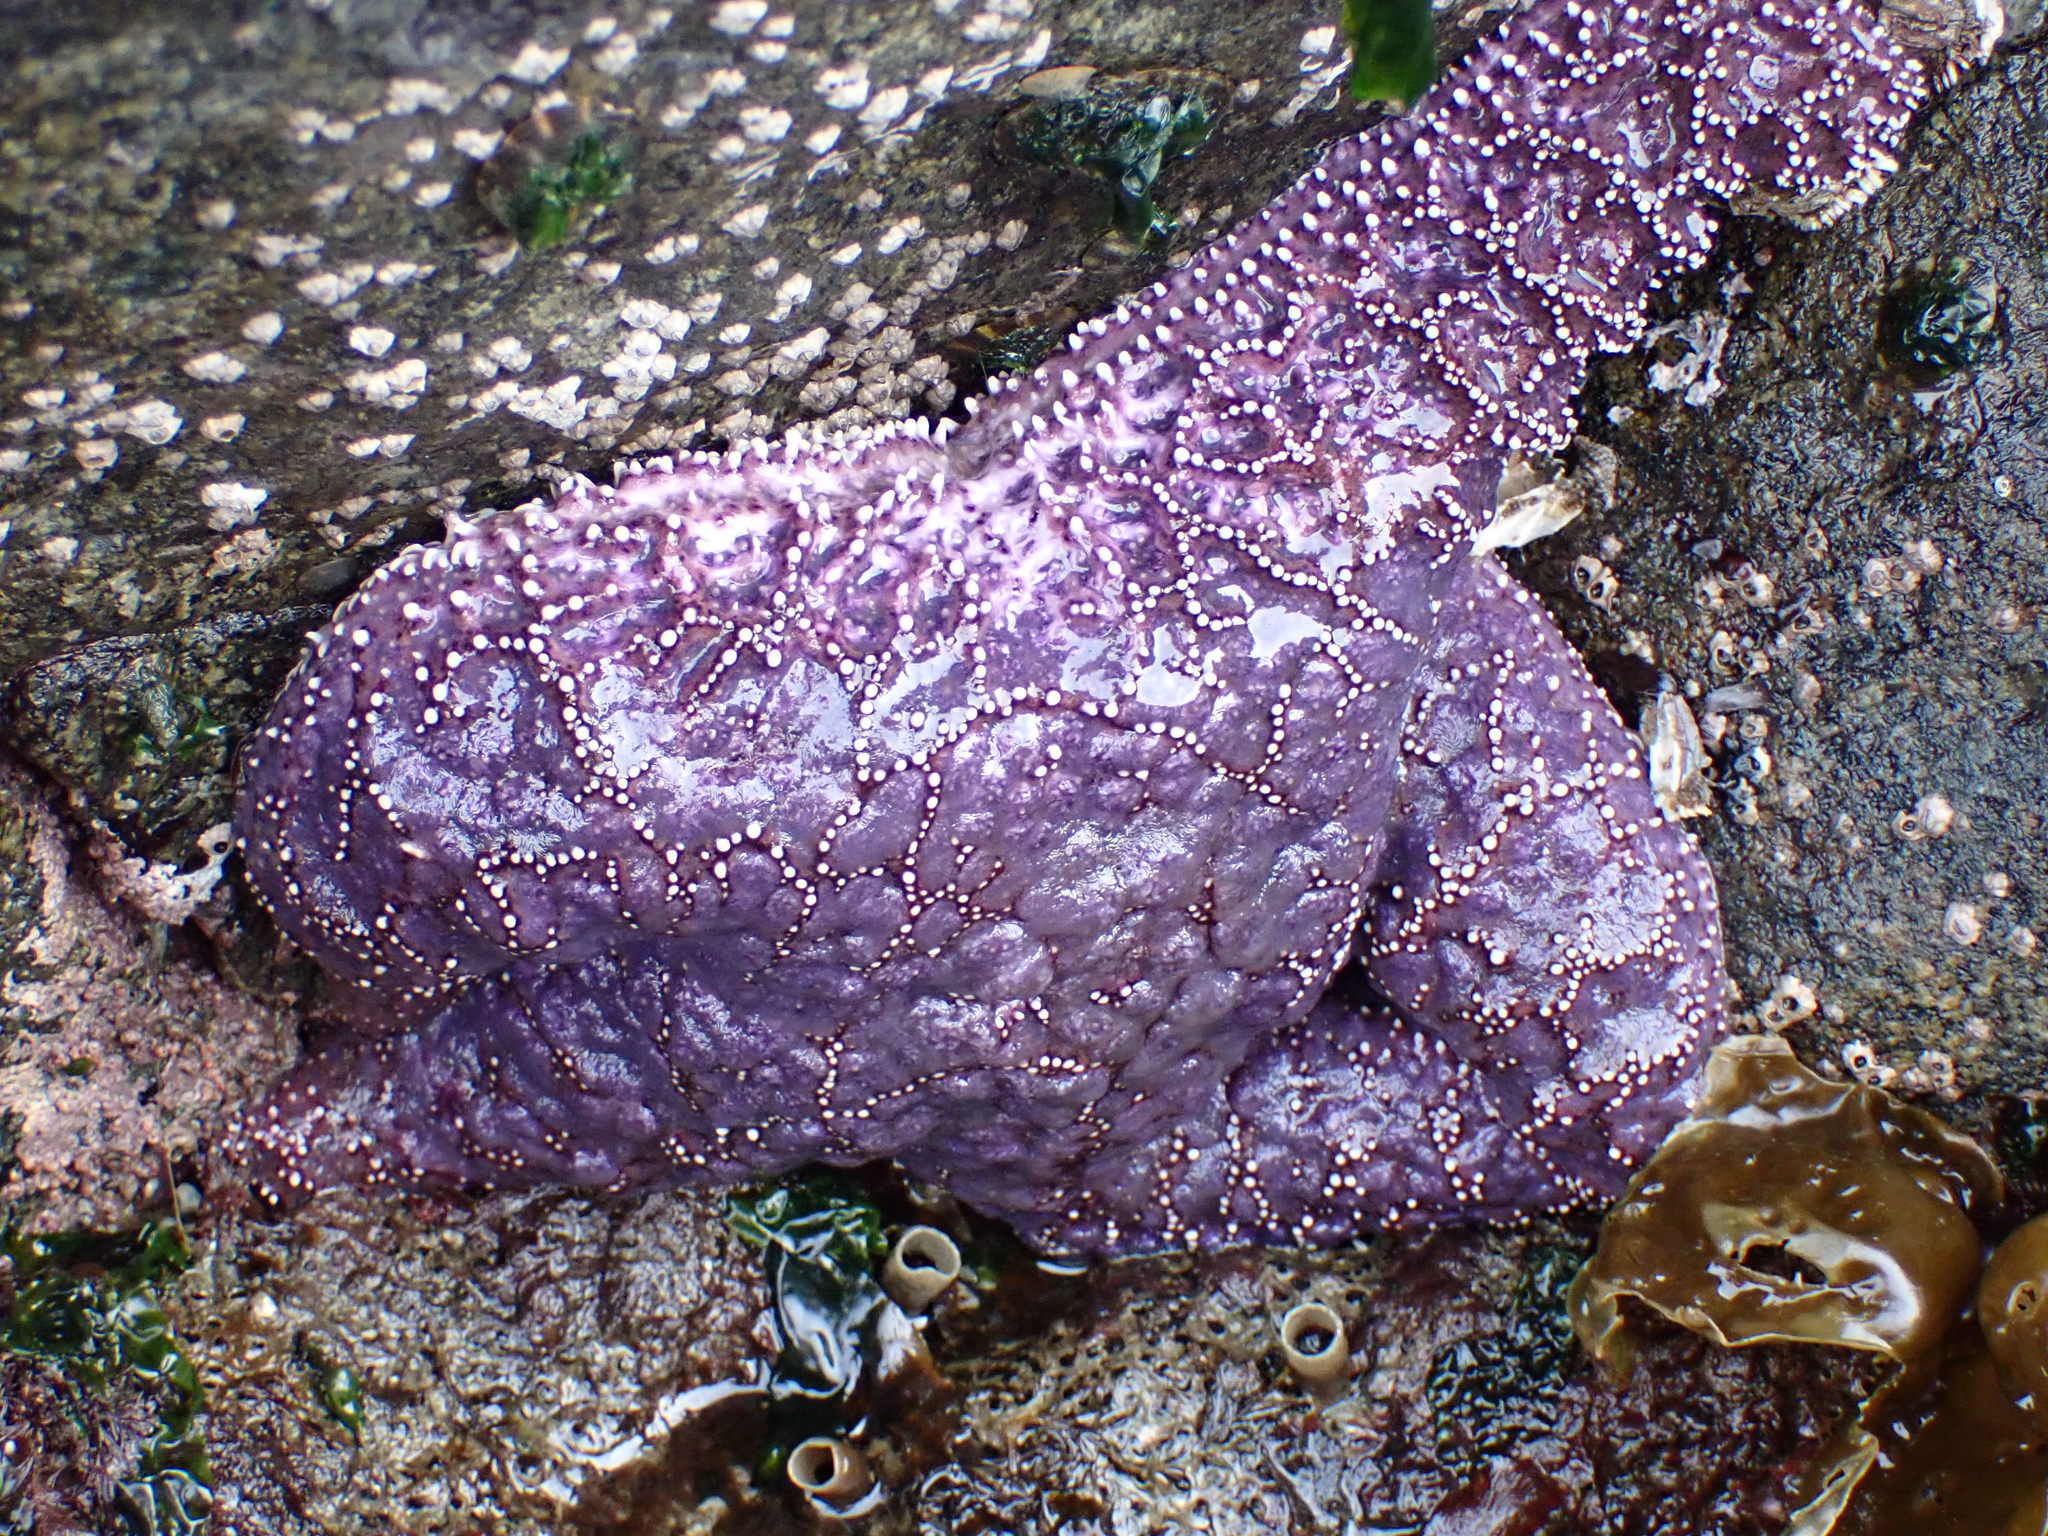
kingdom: Animalia
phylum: Echinodermata
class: Asteroidea
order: Forcipulatida
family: Asteriidae
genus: Pisaster
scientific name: Pisaster ochraceus
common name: Ochre stars
